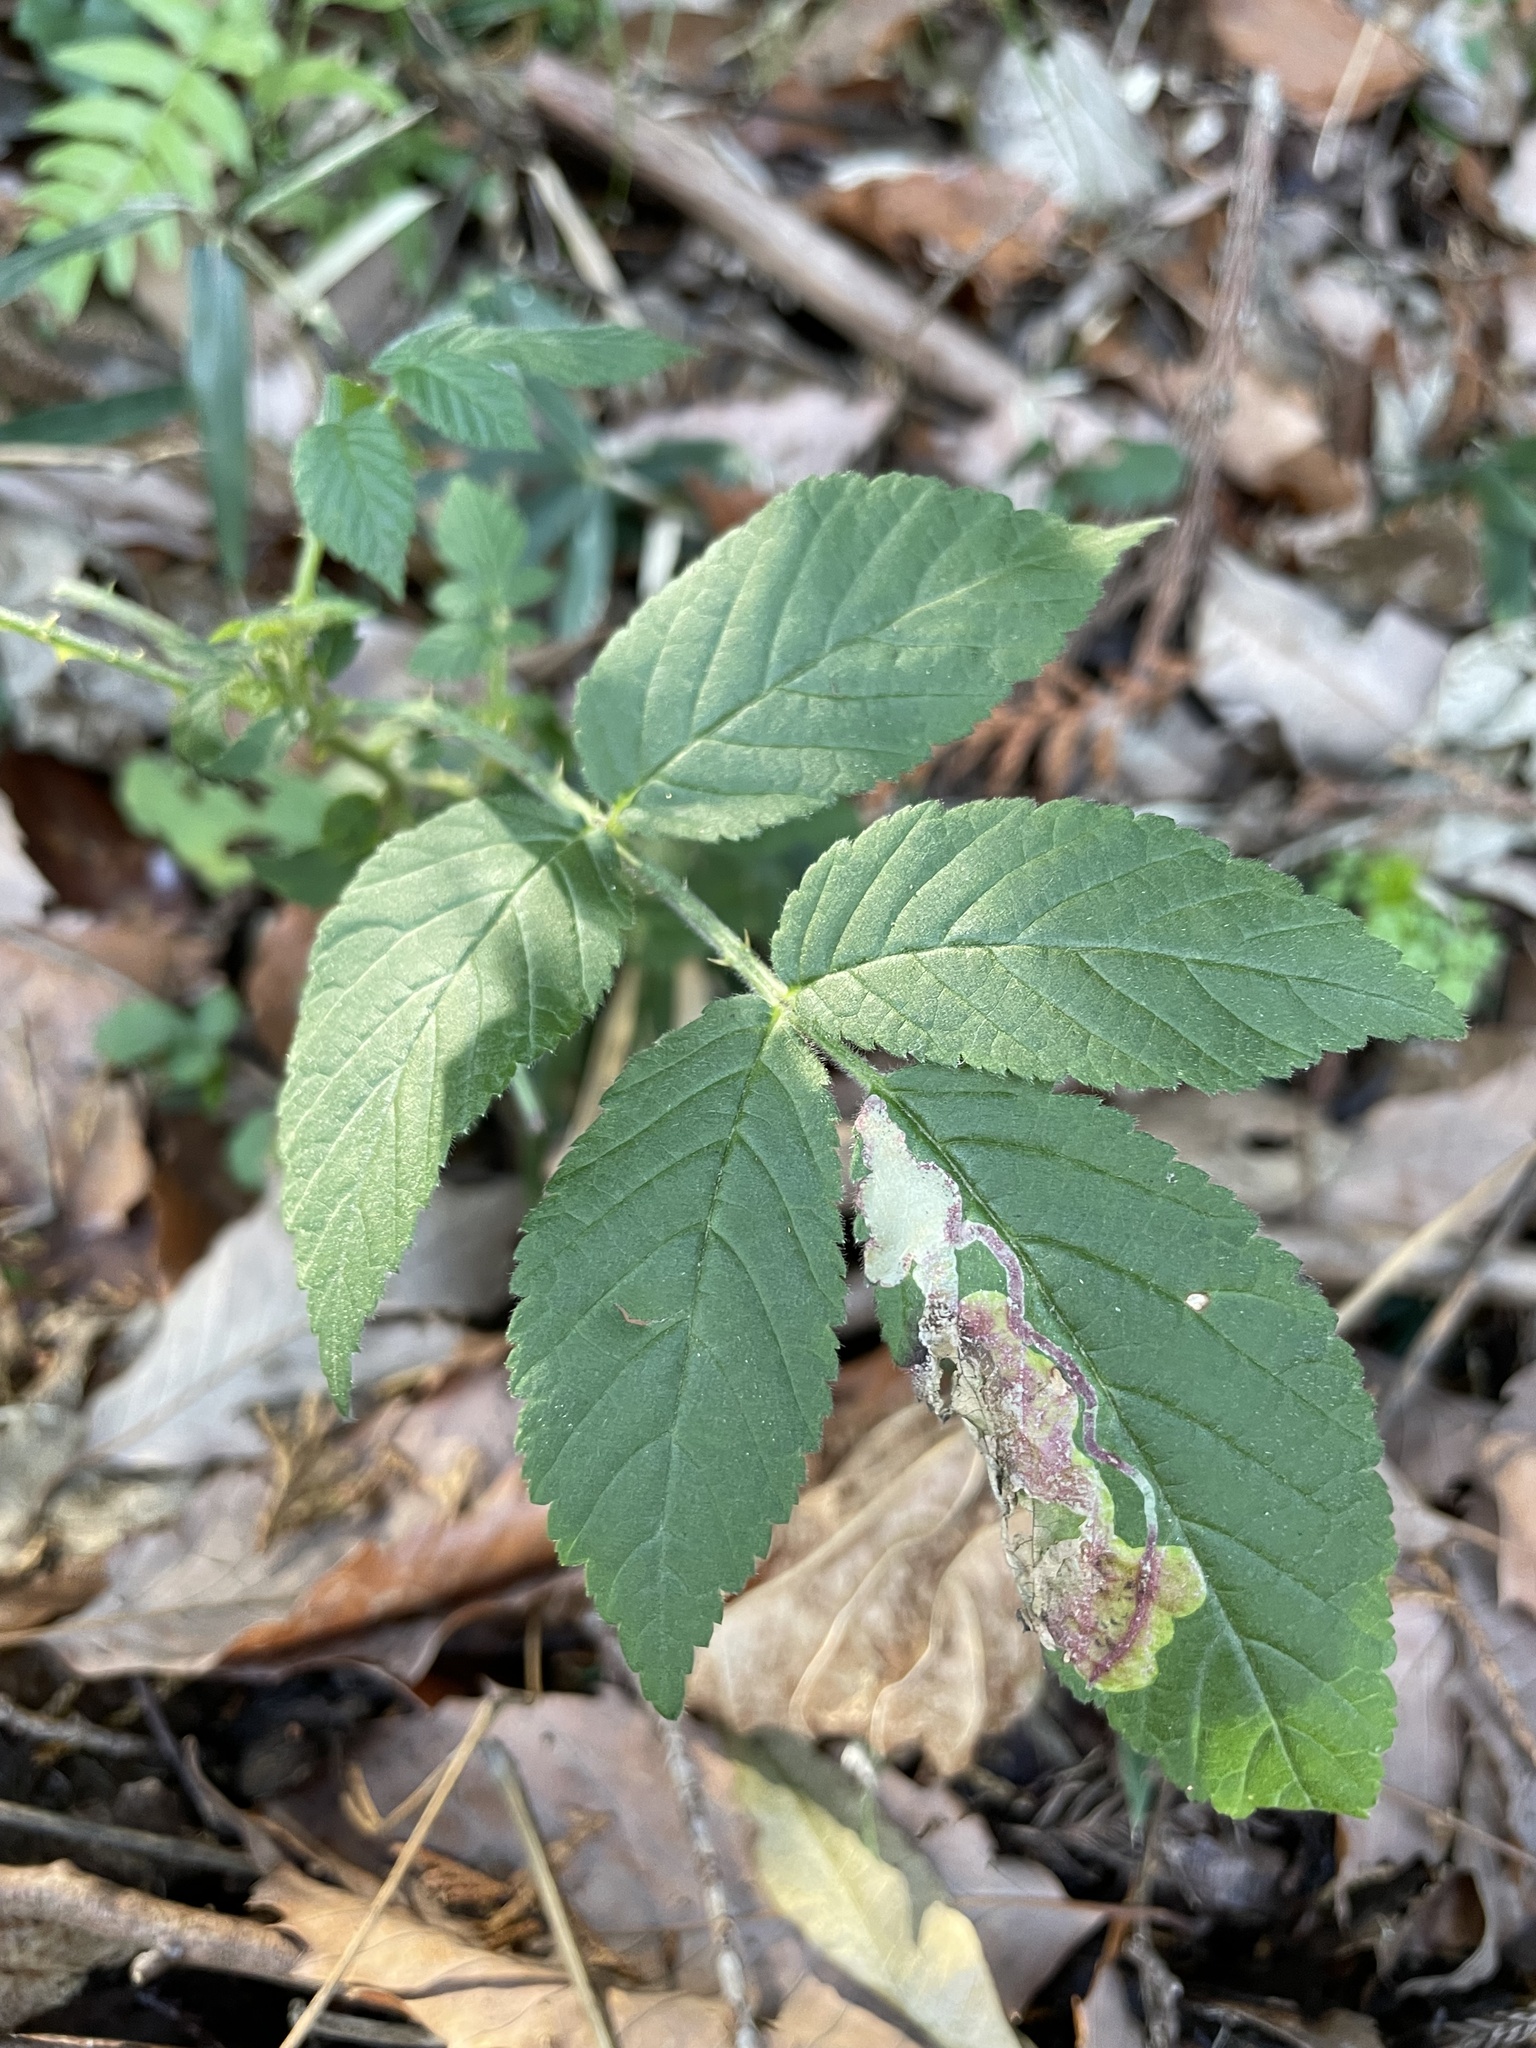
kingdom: Plantae
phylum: Tracheophyta
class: Magnoliopsida
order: Rosales
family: Rosaceae
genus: Rubus
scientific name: Rubus hirsutus
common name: Hirsute raspberry
